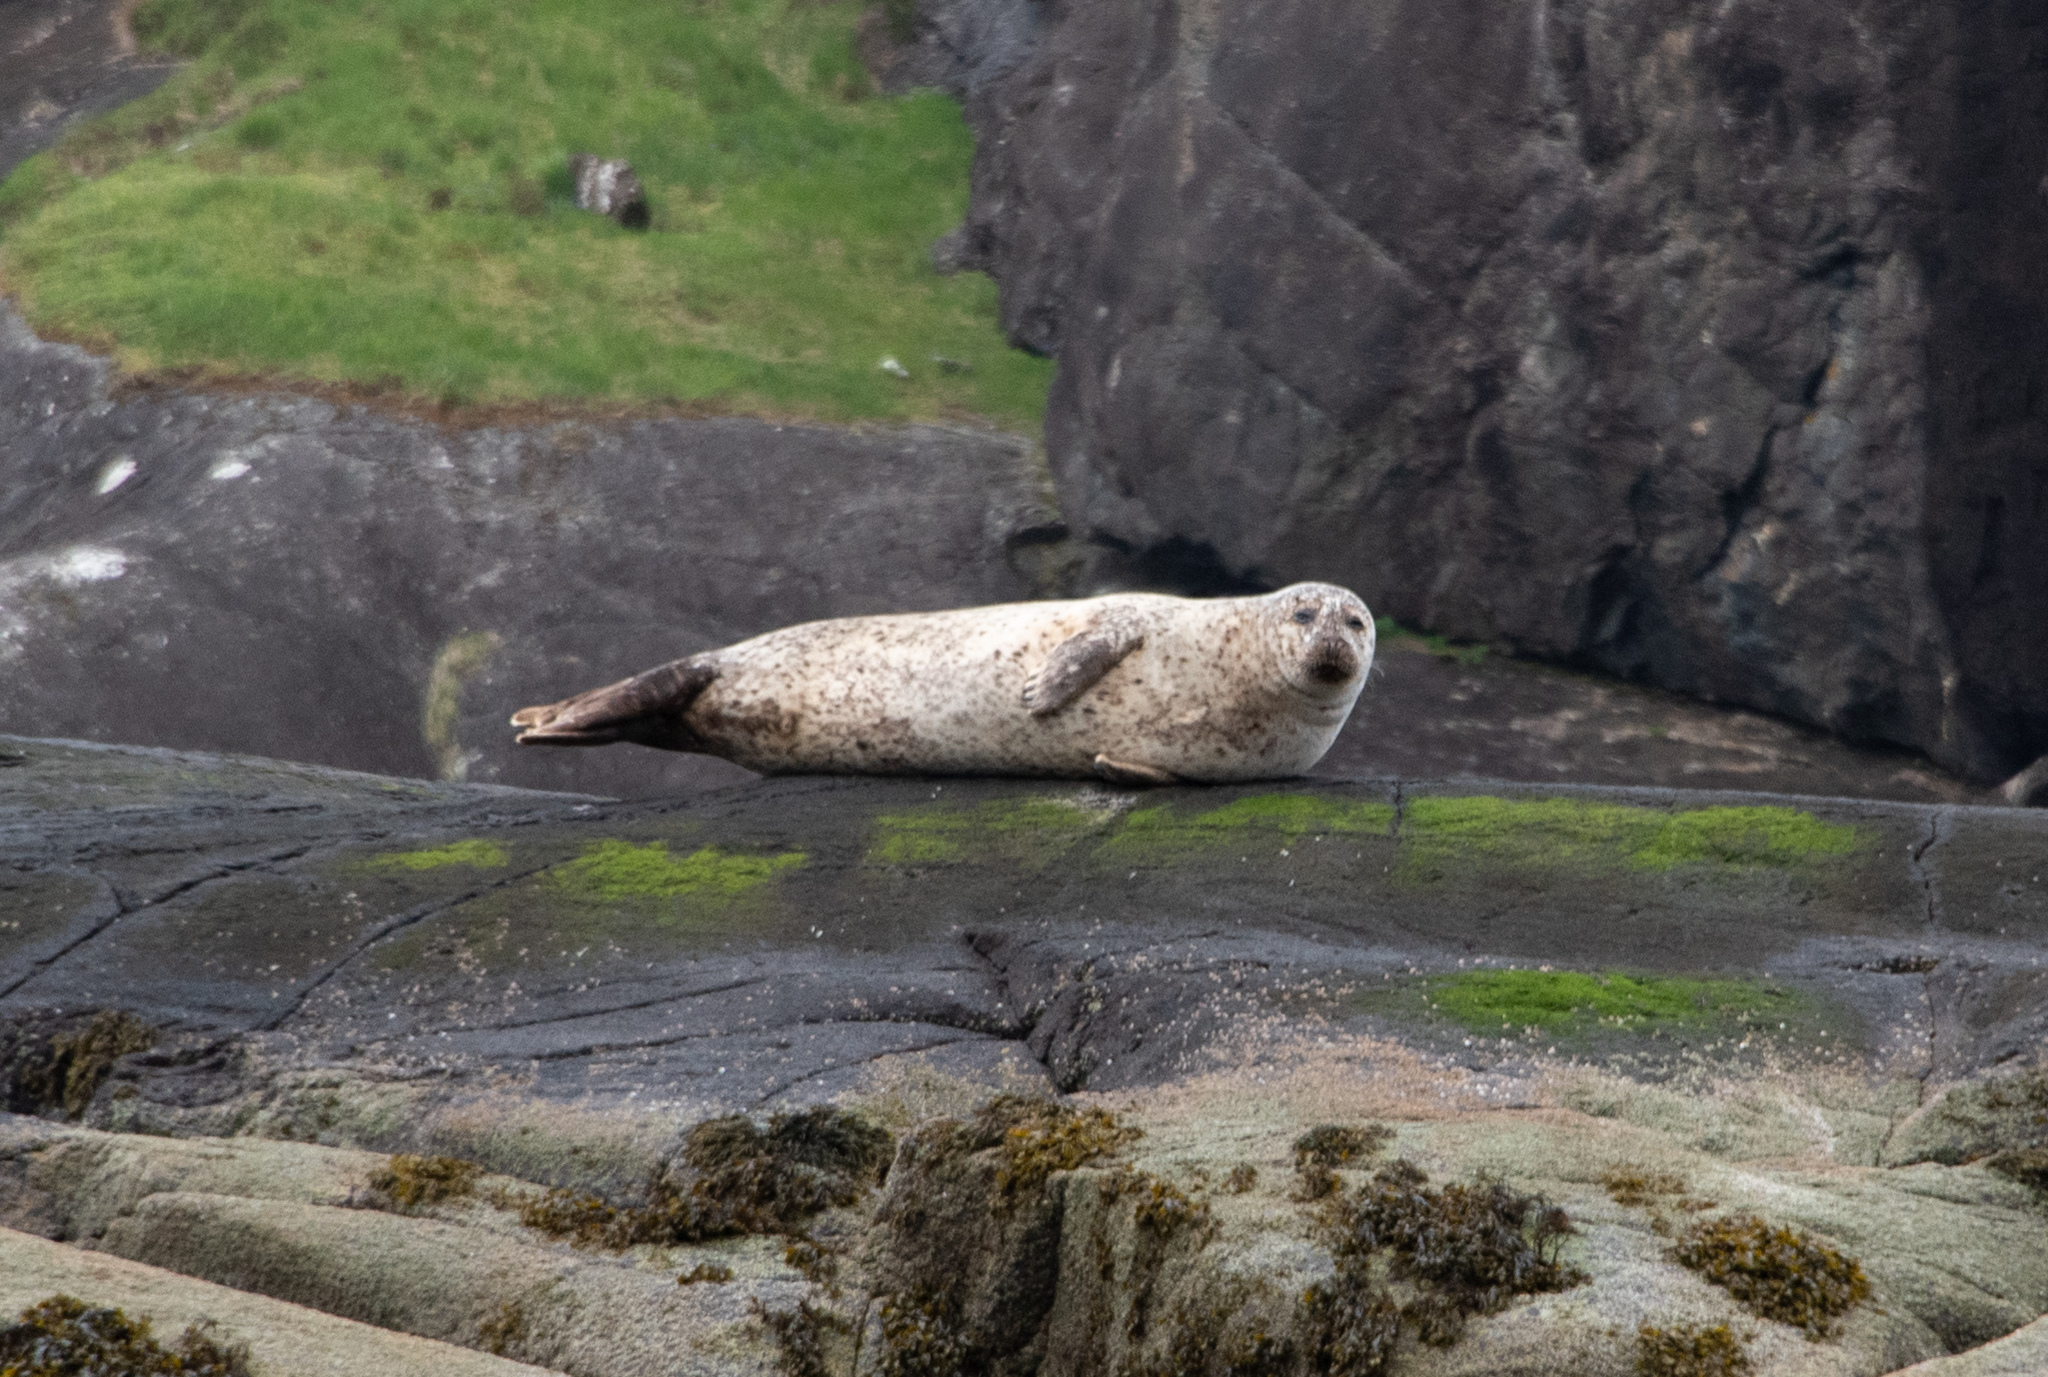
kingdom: Animalia
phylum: Chordata
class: Mammalia
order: Carnivora
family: Phocidae
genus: Phoca
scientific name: Phoca vitulina
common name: Harbor seal
